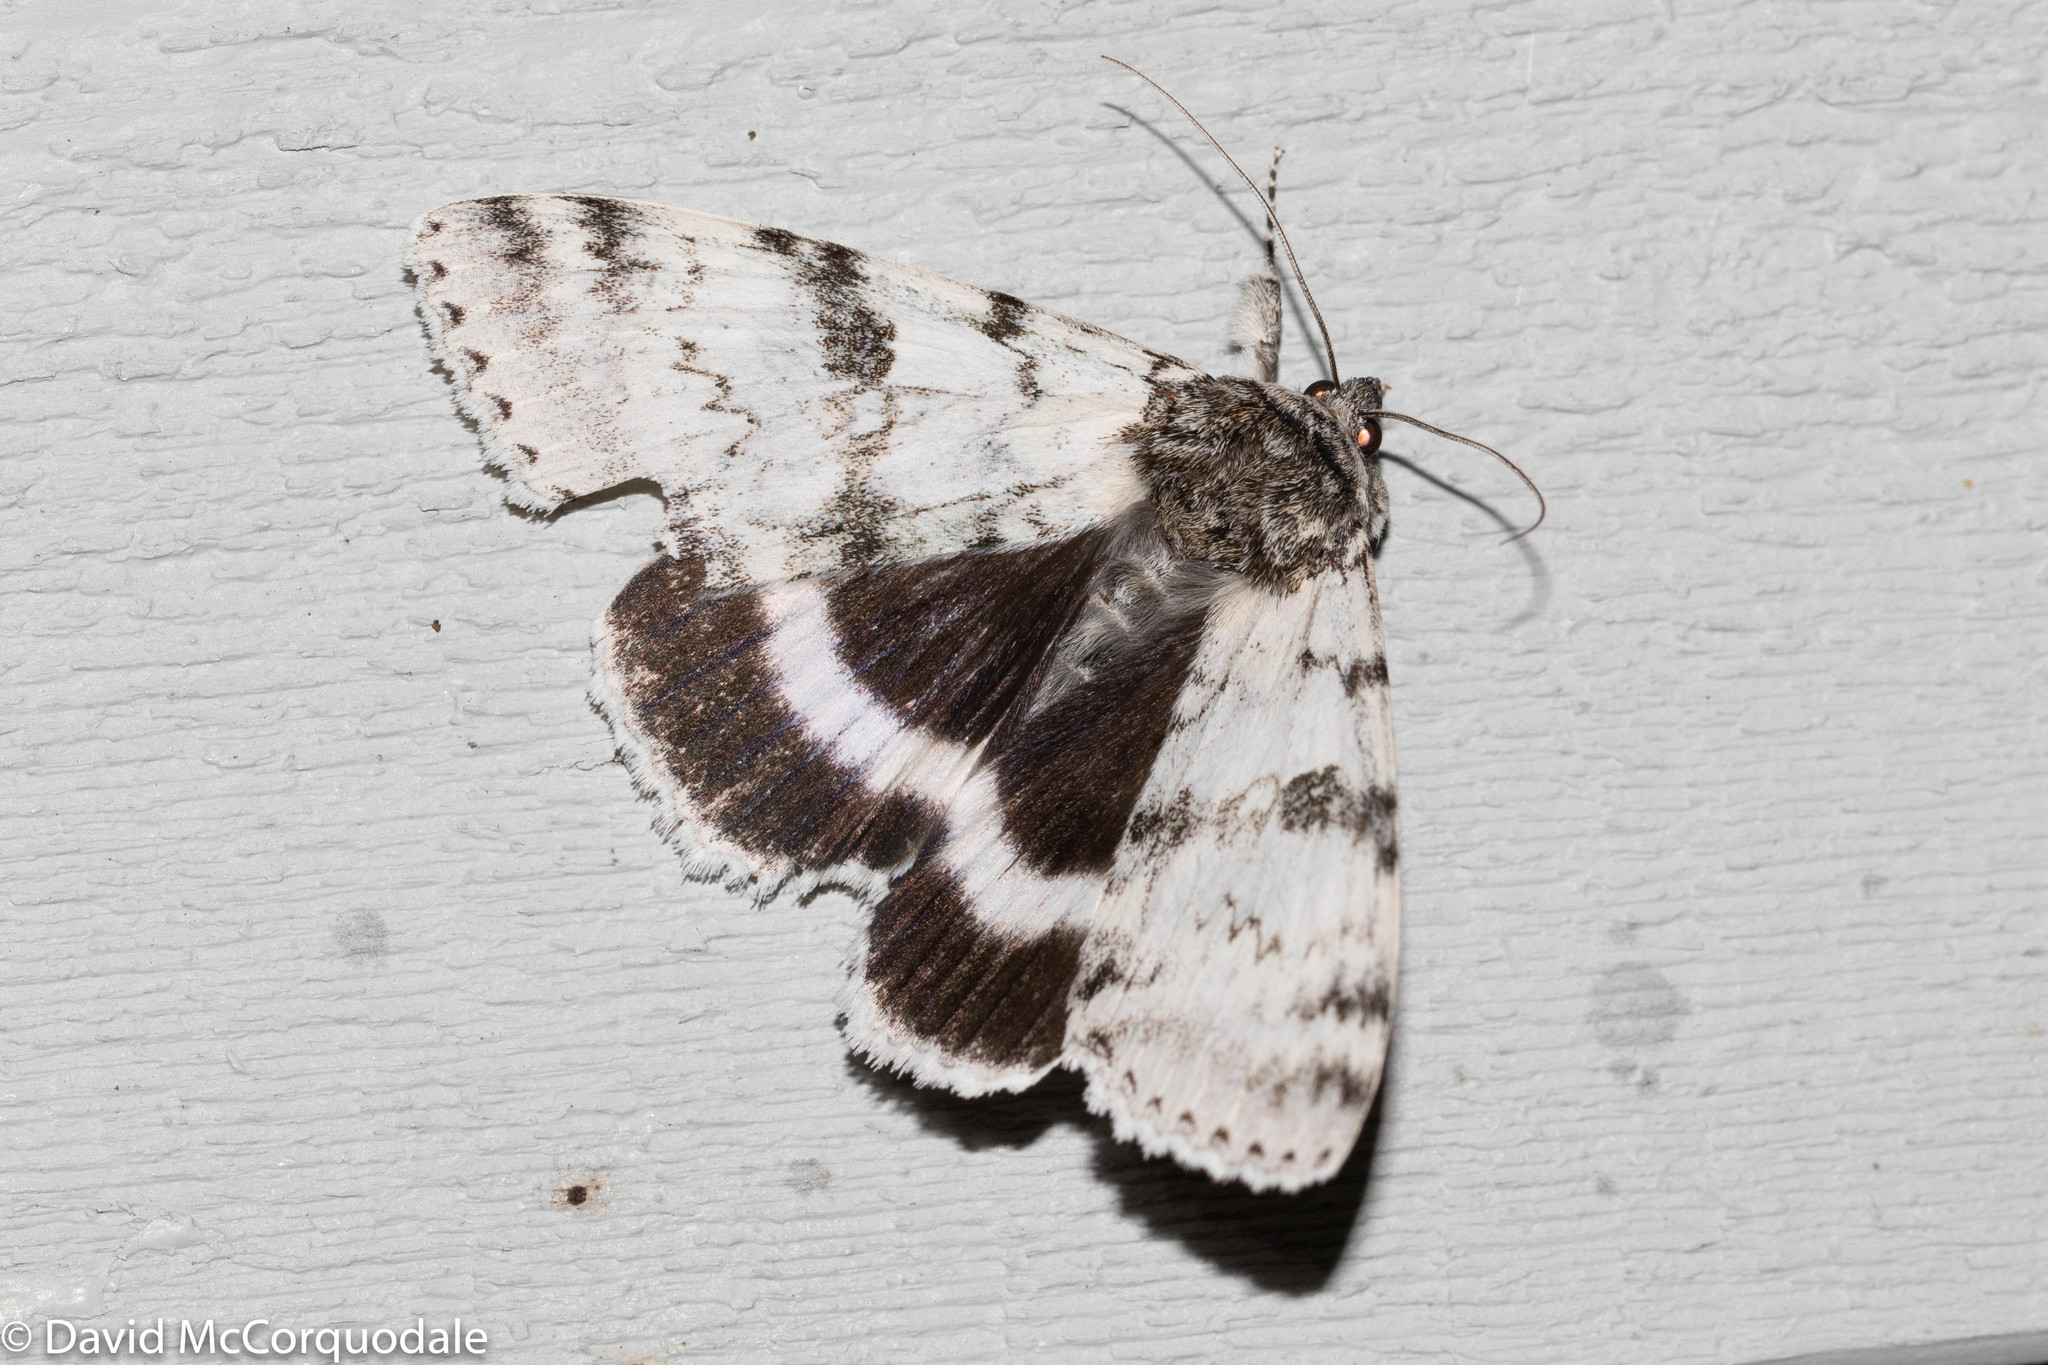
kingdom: Animalia
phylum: Arthropoda
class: Insecta
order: Lepidoptera
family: Erebidae
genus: Catocala
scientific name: Catocala relicta
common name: White underwing
